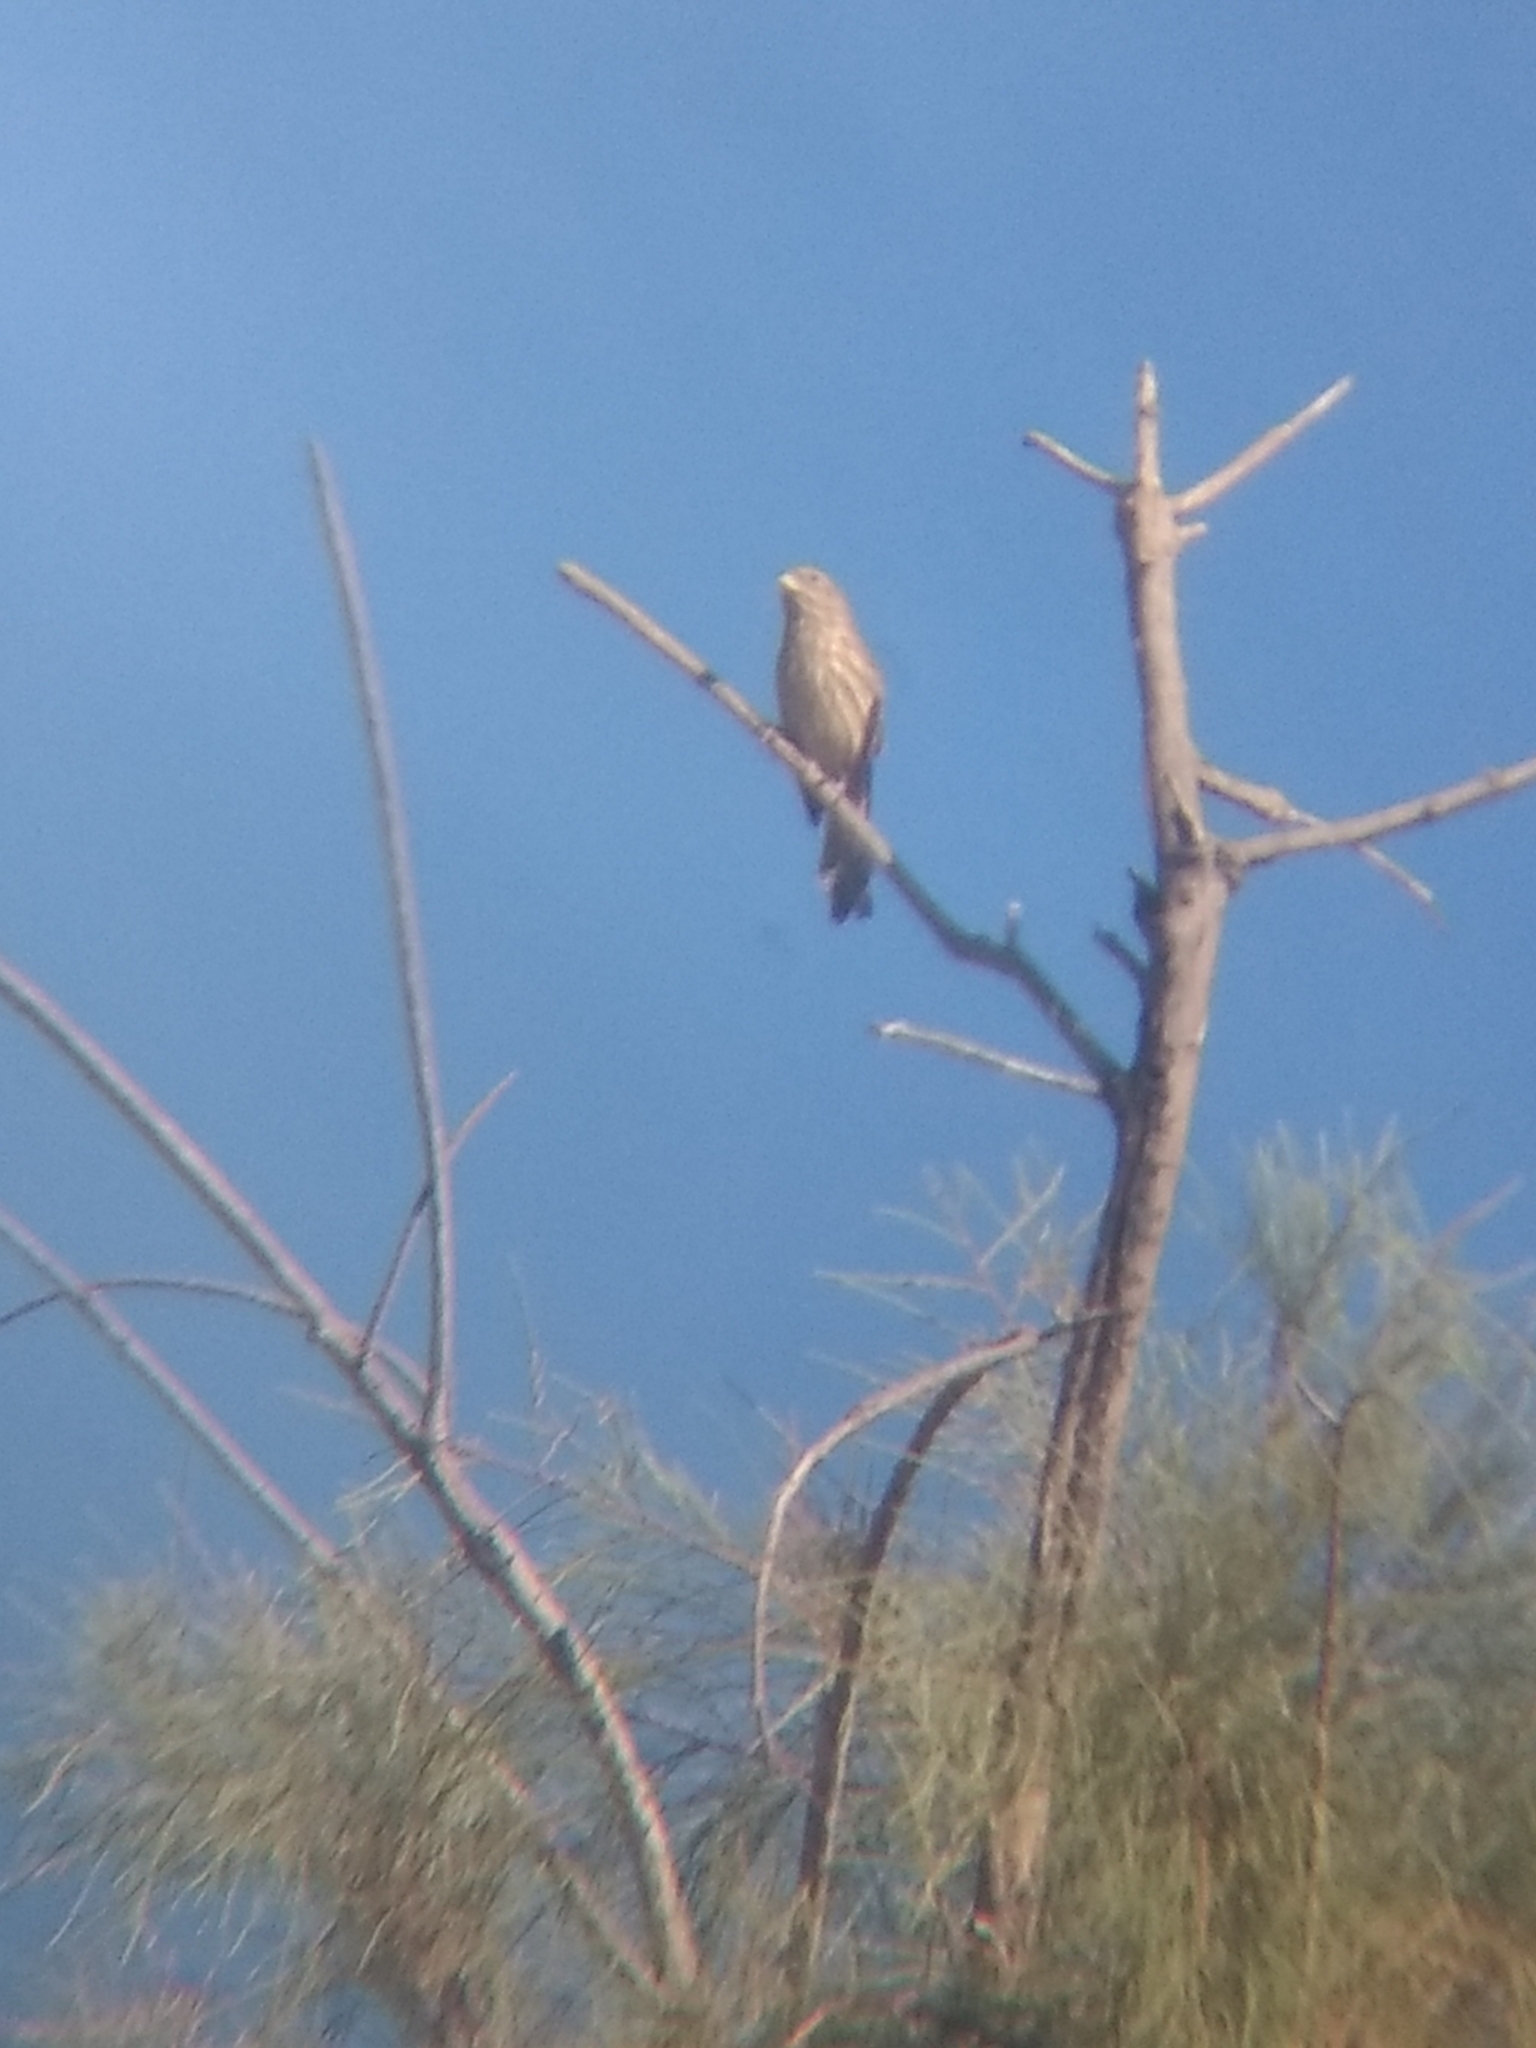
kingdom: Animalia
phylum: Chordata
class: Aves
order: Passeriformes
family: Fringillidae
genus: Haemorhous
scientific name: Haemorhous mexicanus
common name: House finch
